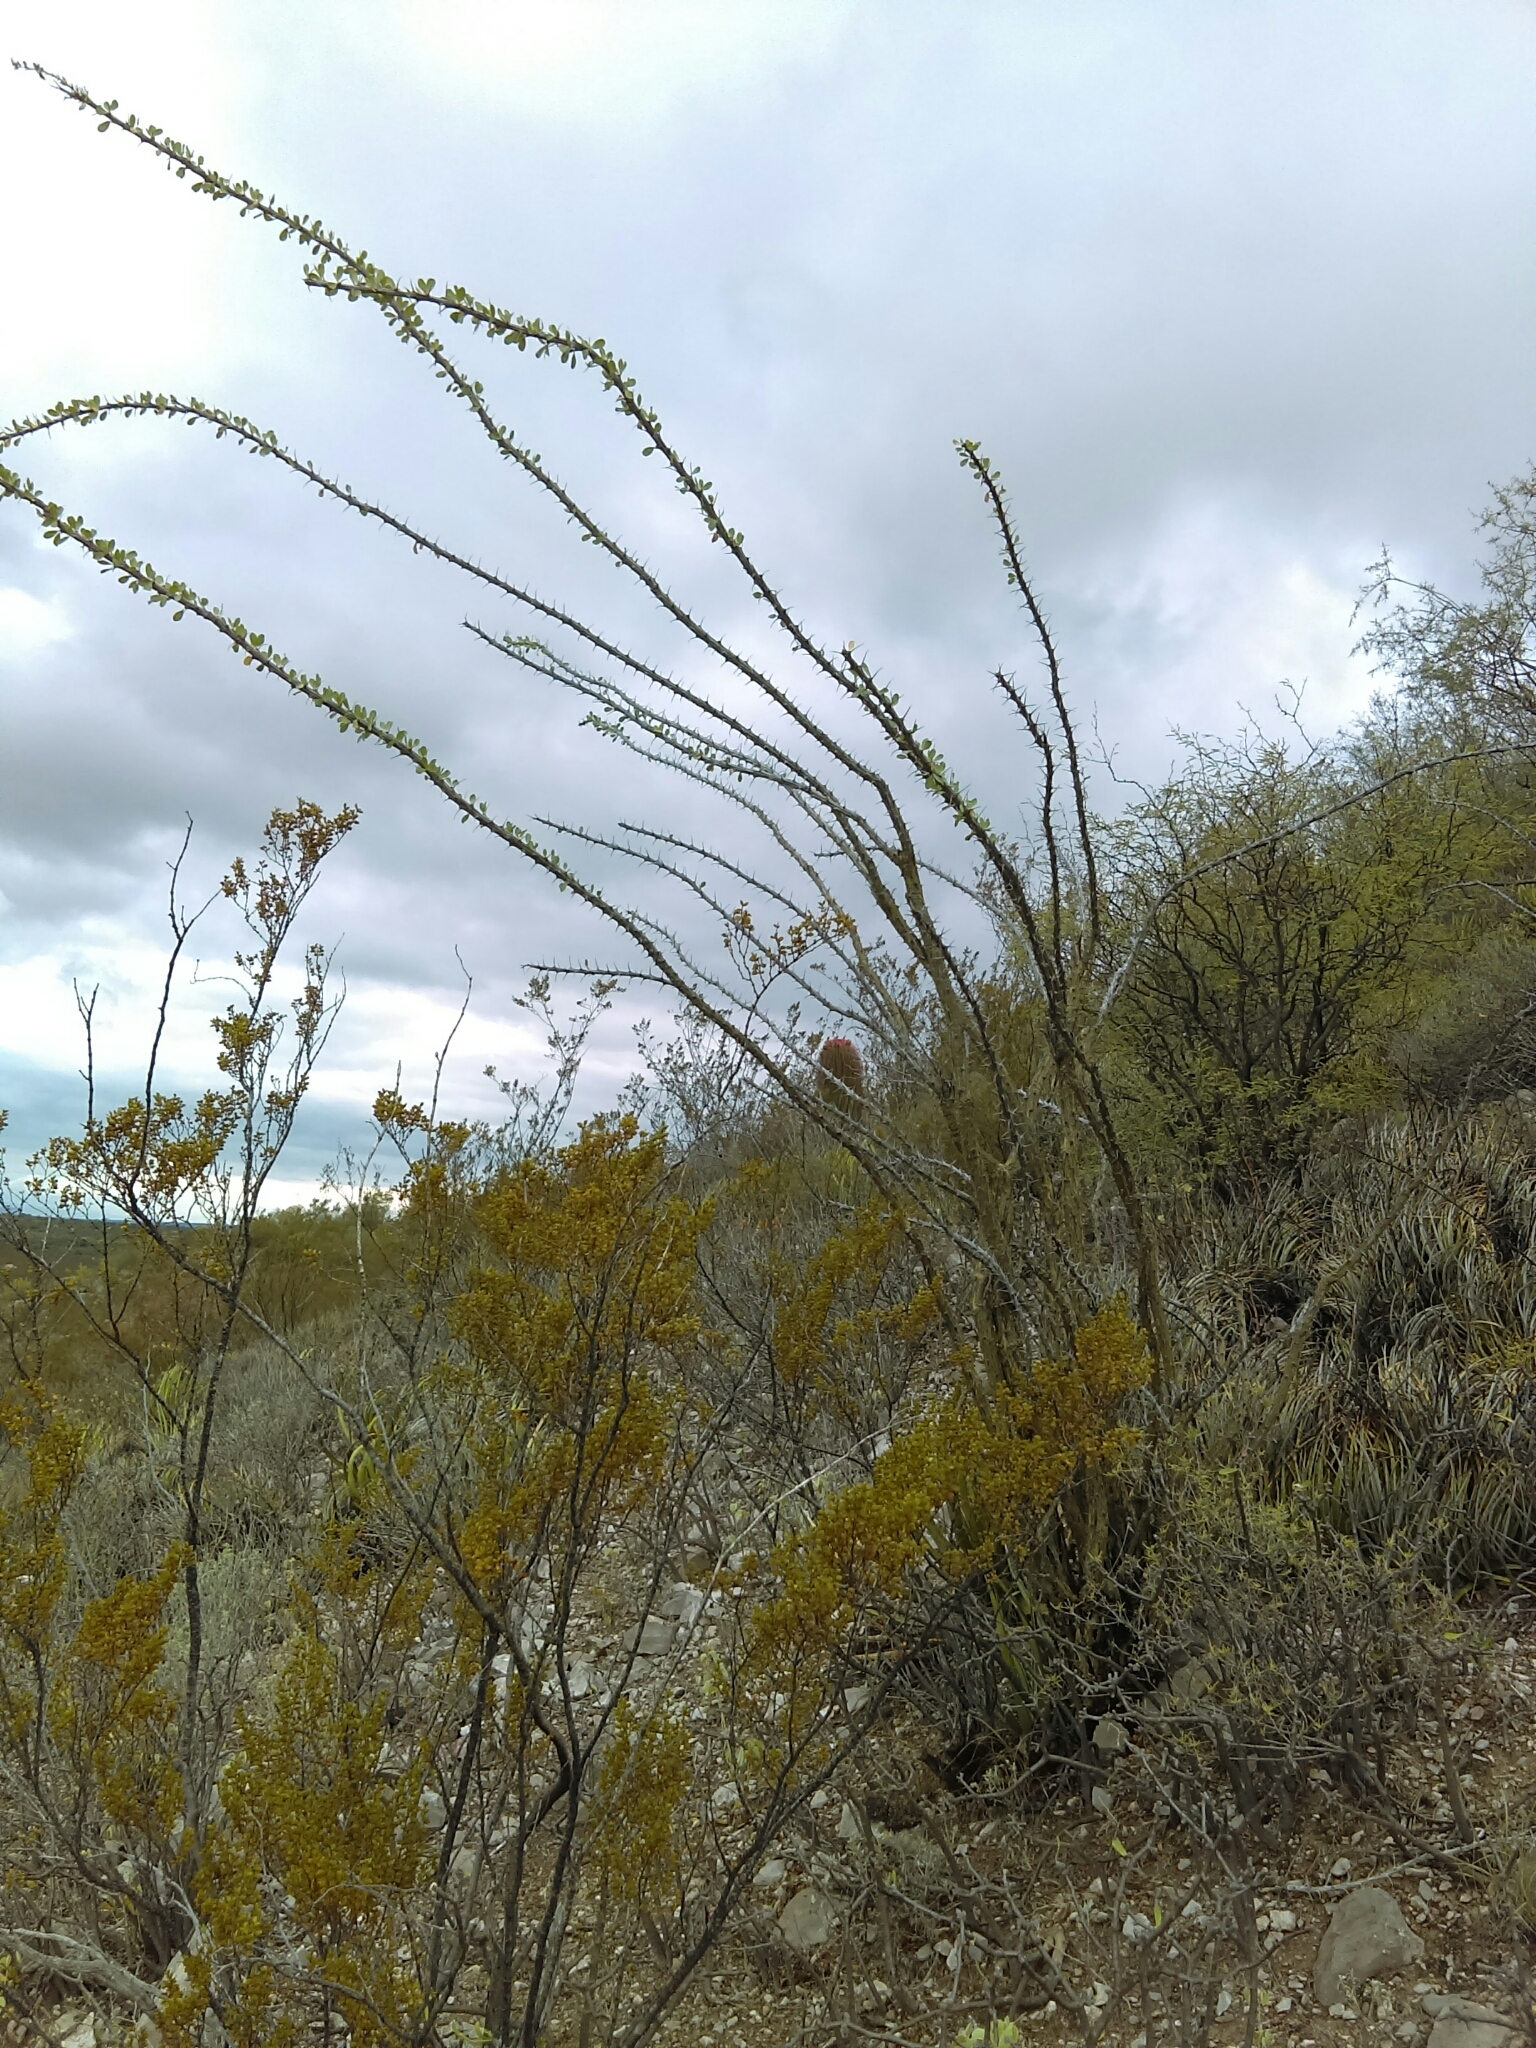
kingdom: Plantae
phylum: Tracheophyta
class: Magnoliopsida
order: Ericales
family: Fouquieriaceae
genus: Fouquieria
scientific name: Fouquieria splendens
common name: Vine-cactus
